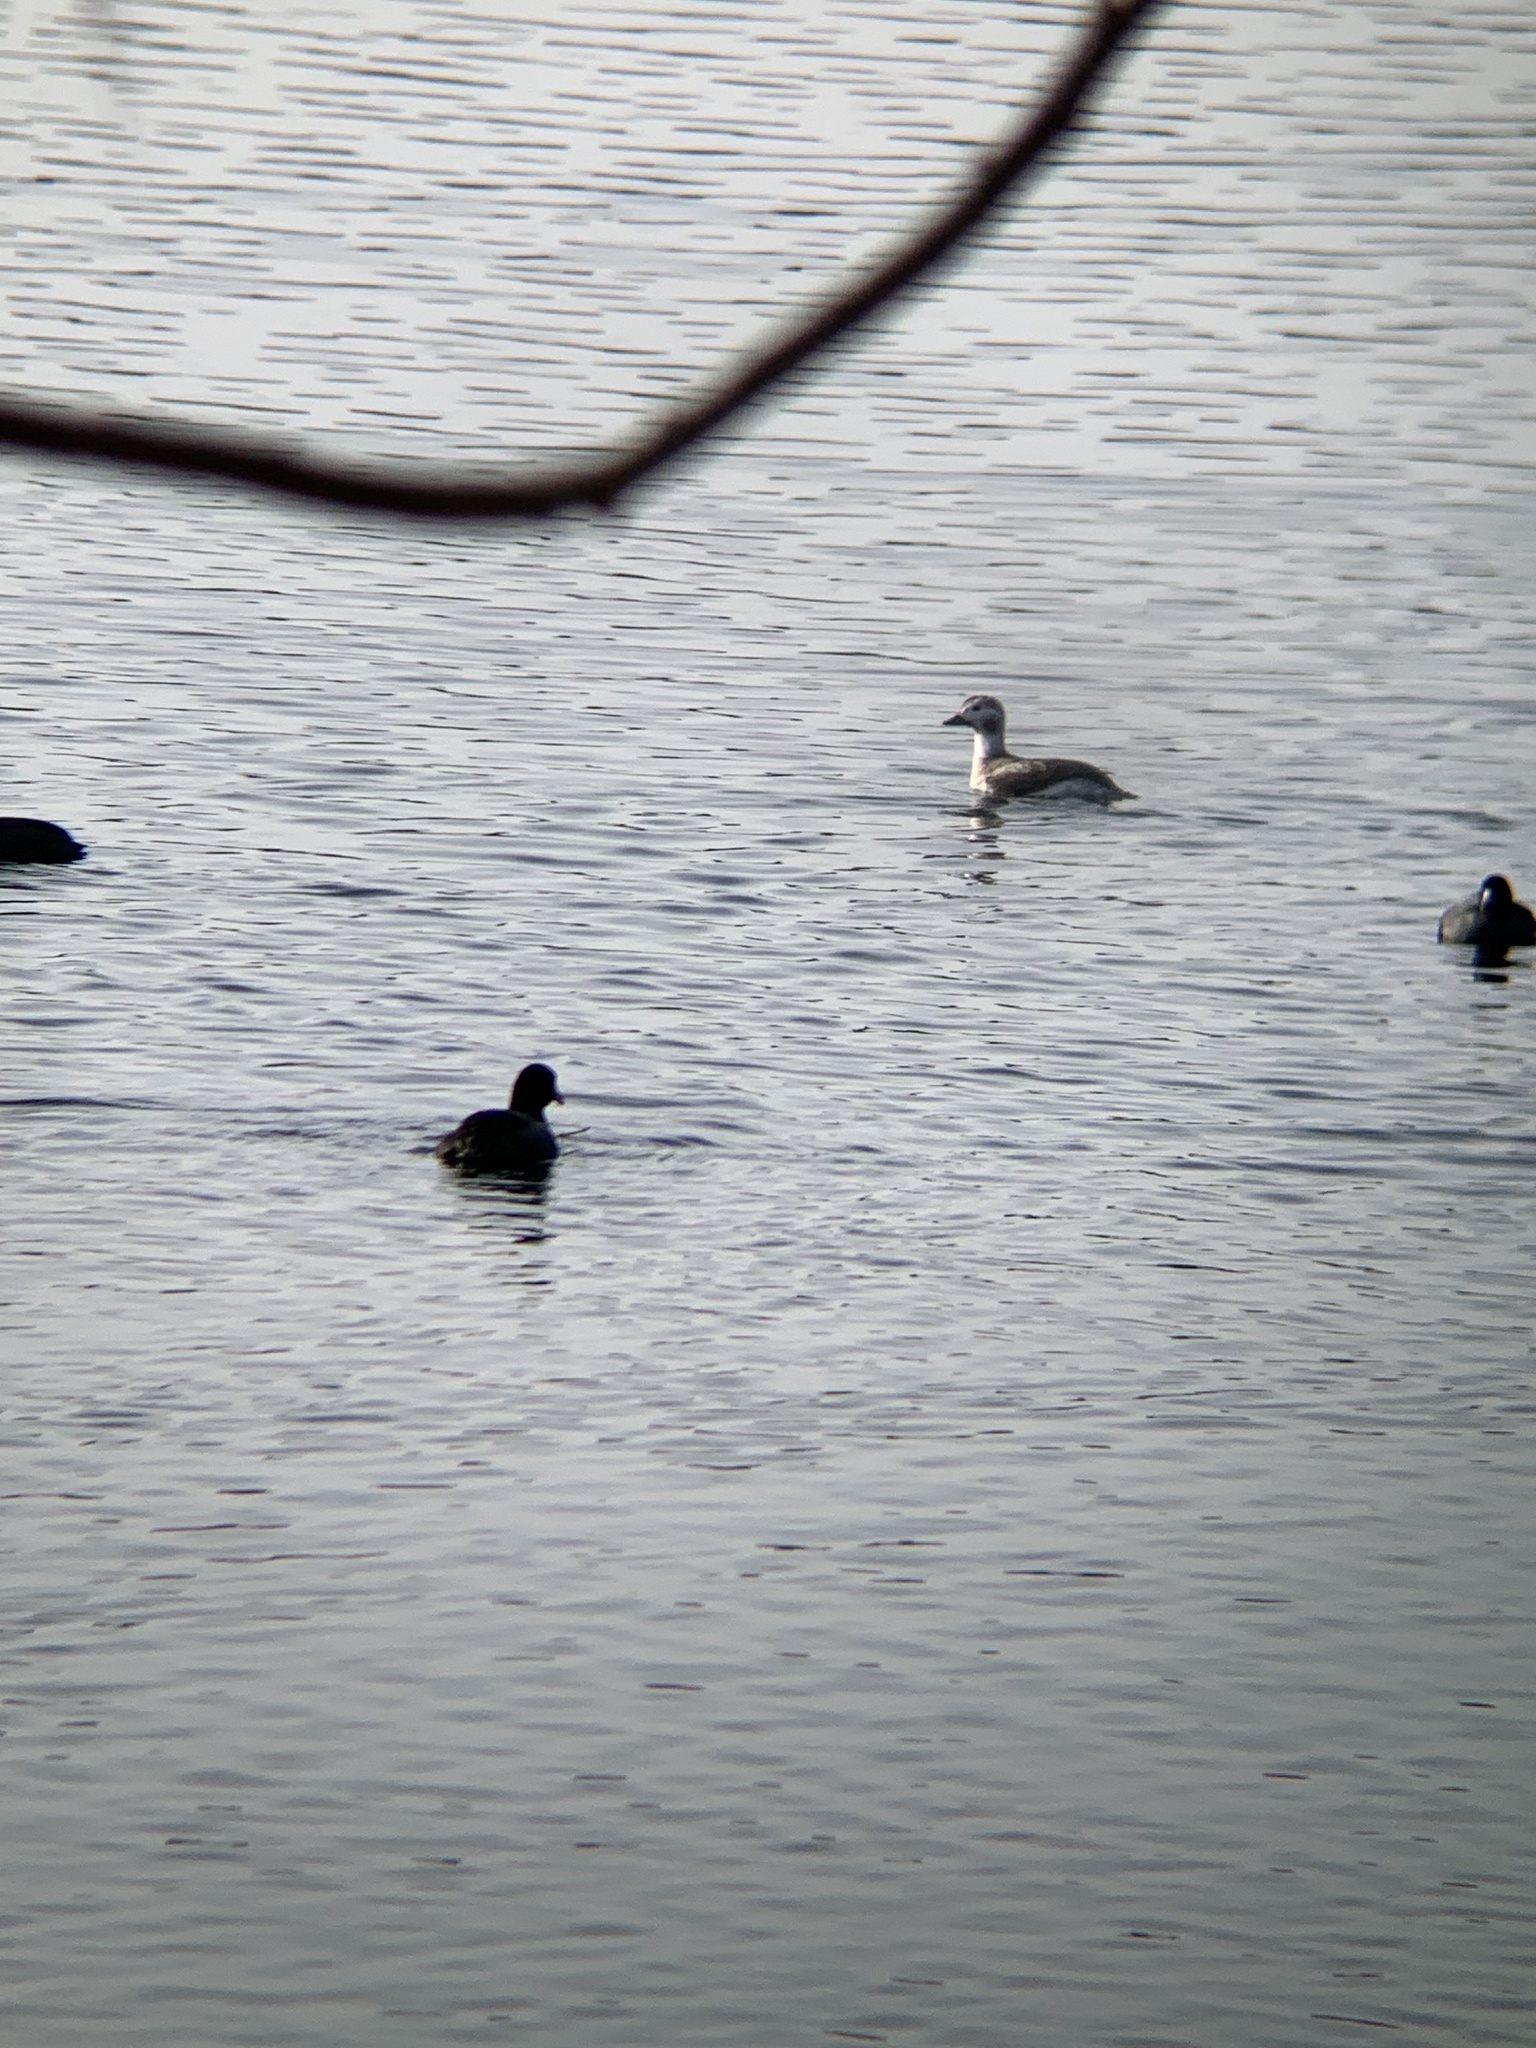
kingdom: Animalia
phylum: Chordata
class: Aves
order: Anseriformes
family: Anatidae
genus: Clangula
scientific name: Clangula hyemalis
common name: Long-tailed duck
